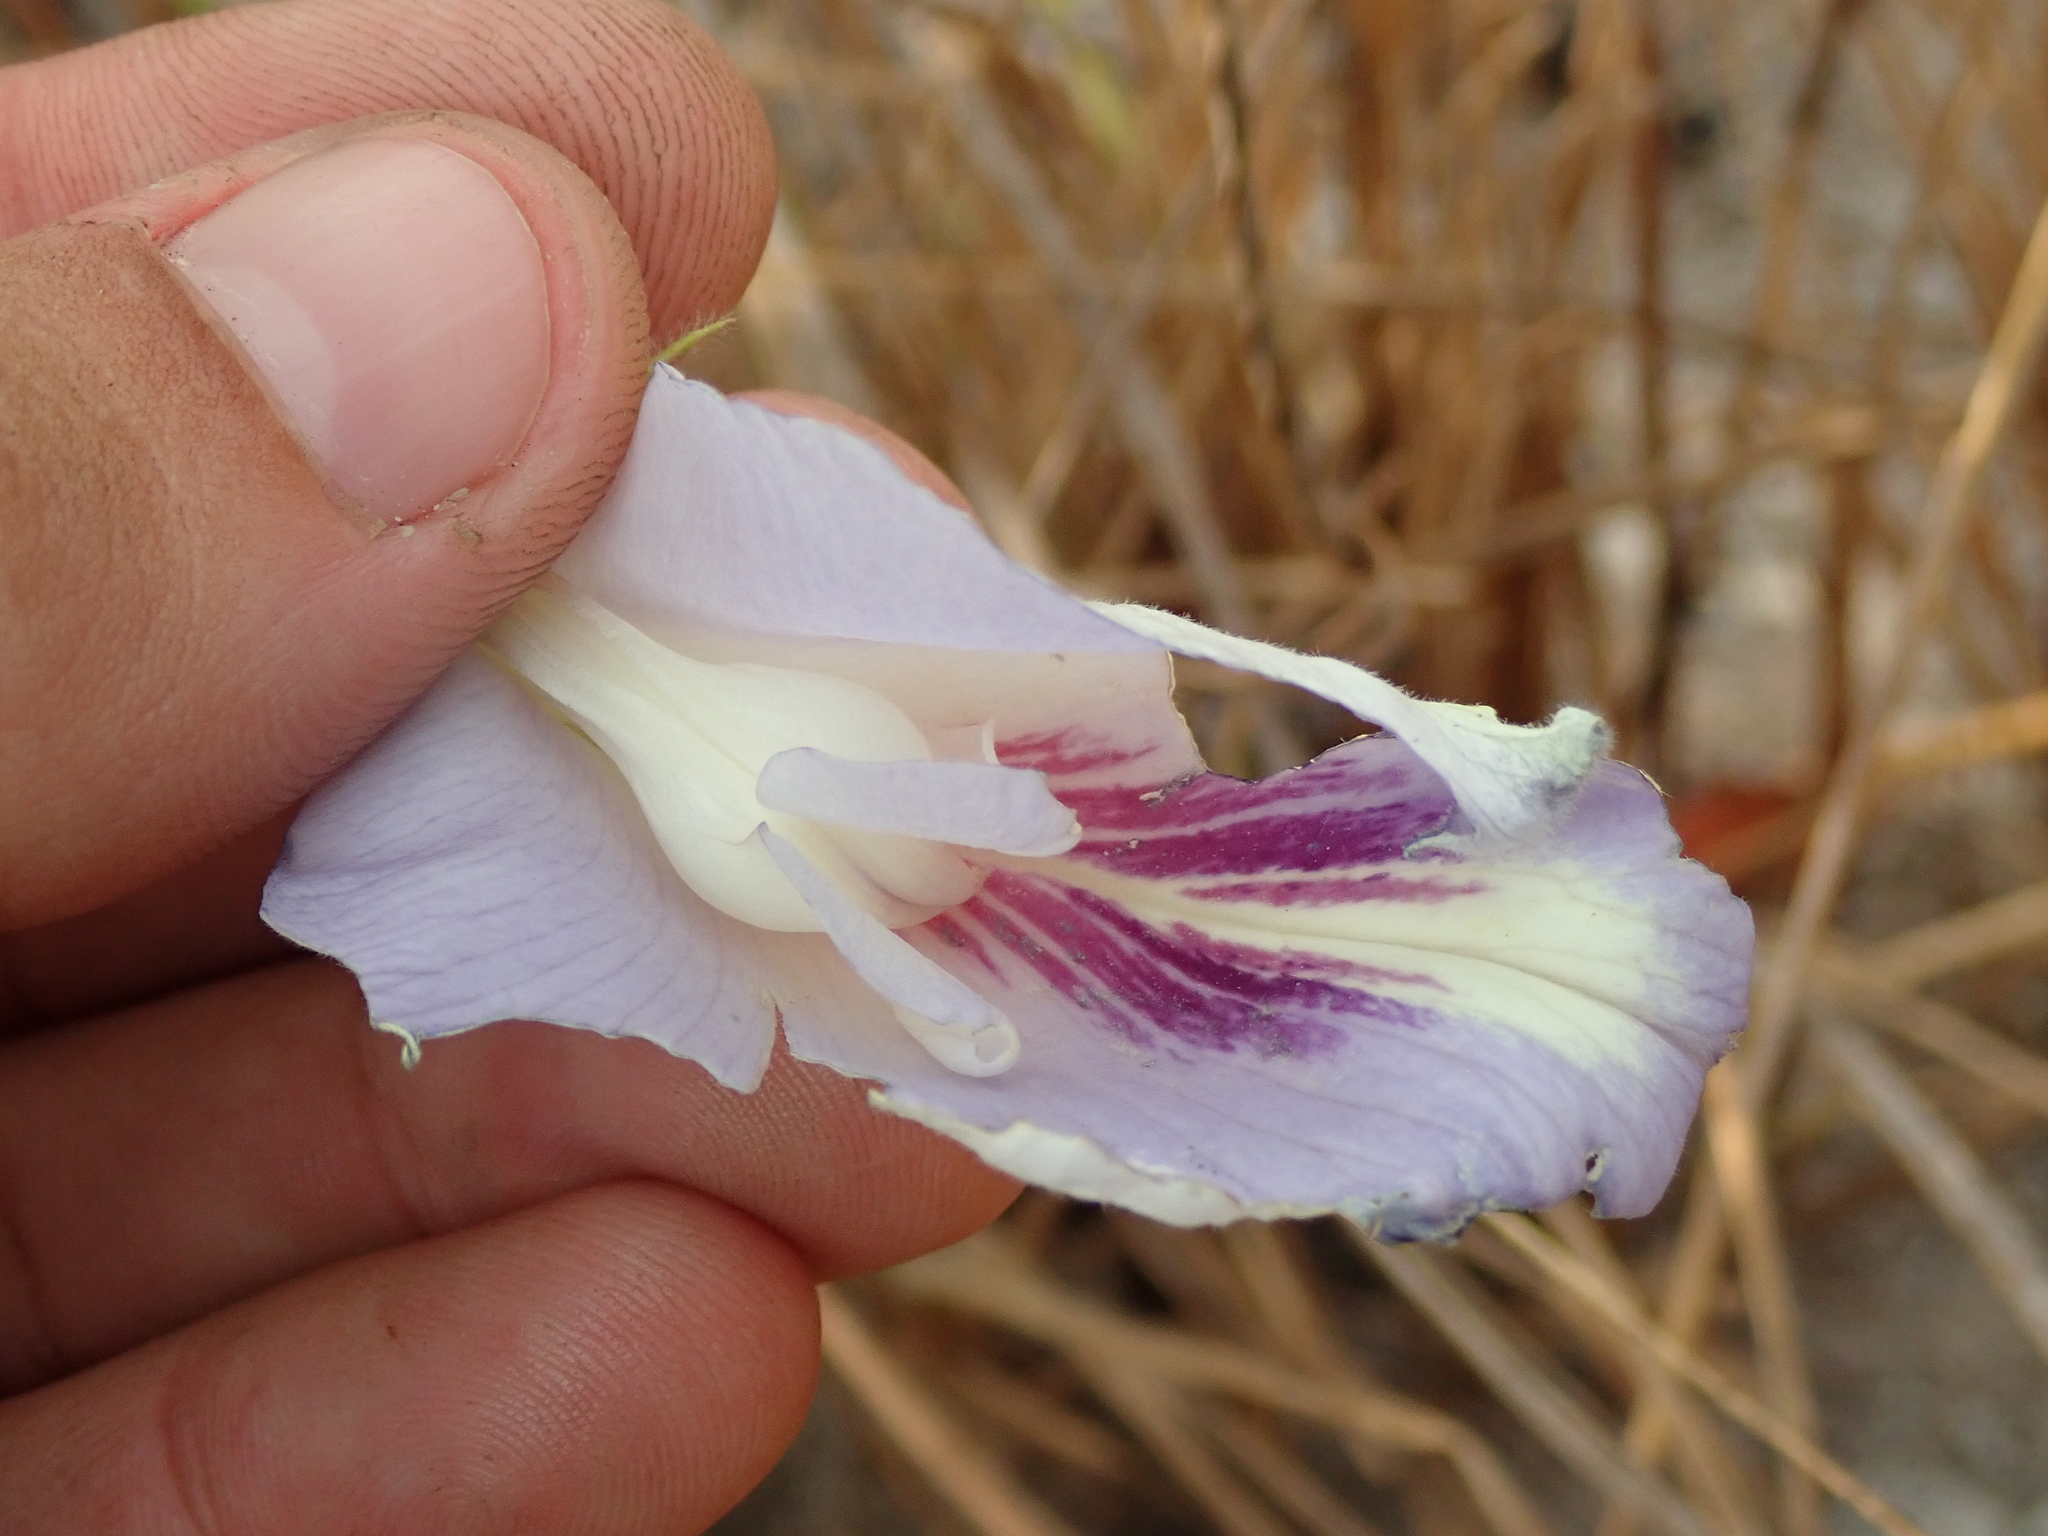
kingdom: Plantae
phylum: Tracheophyta
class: Magnoliopsida
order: Fabales
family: Fabaceae
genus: Clitoria
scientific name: Clitoria guianensis
